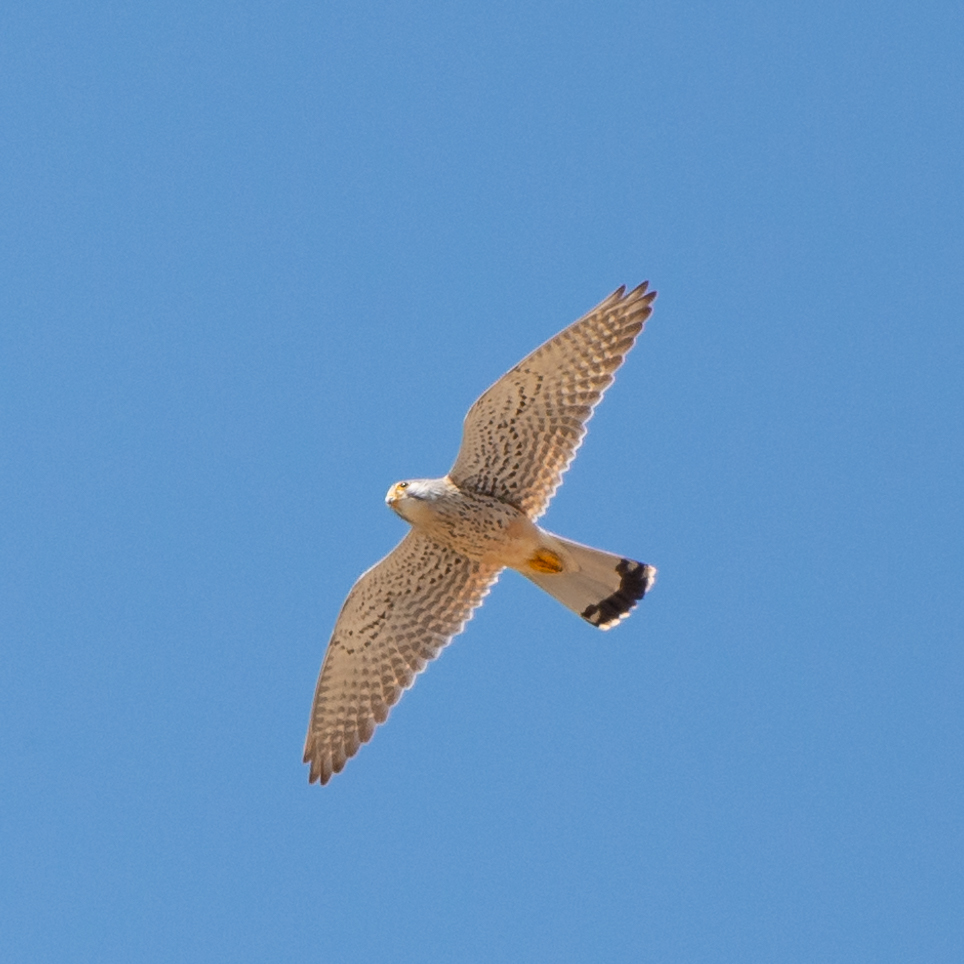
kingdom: Animalia
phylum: Chordata
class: Aves
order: Falconiformes
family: Falconidae
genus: Falco
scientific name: Falco tinnunculus
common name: Common kestrel
